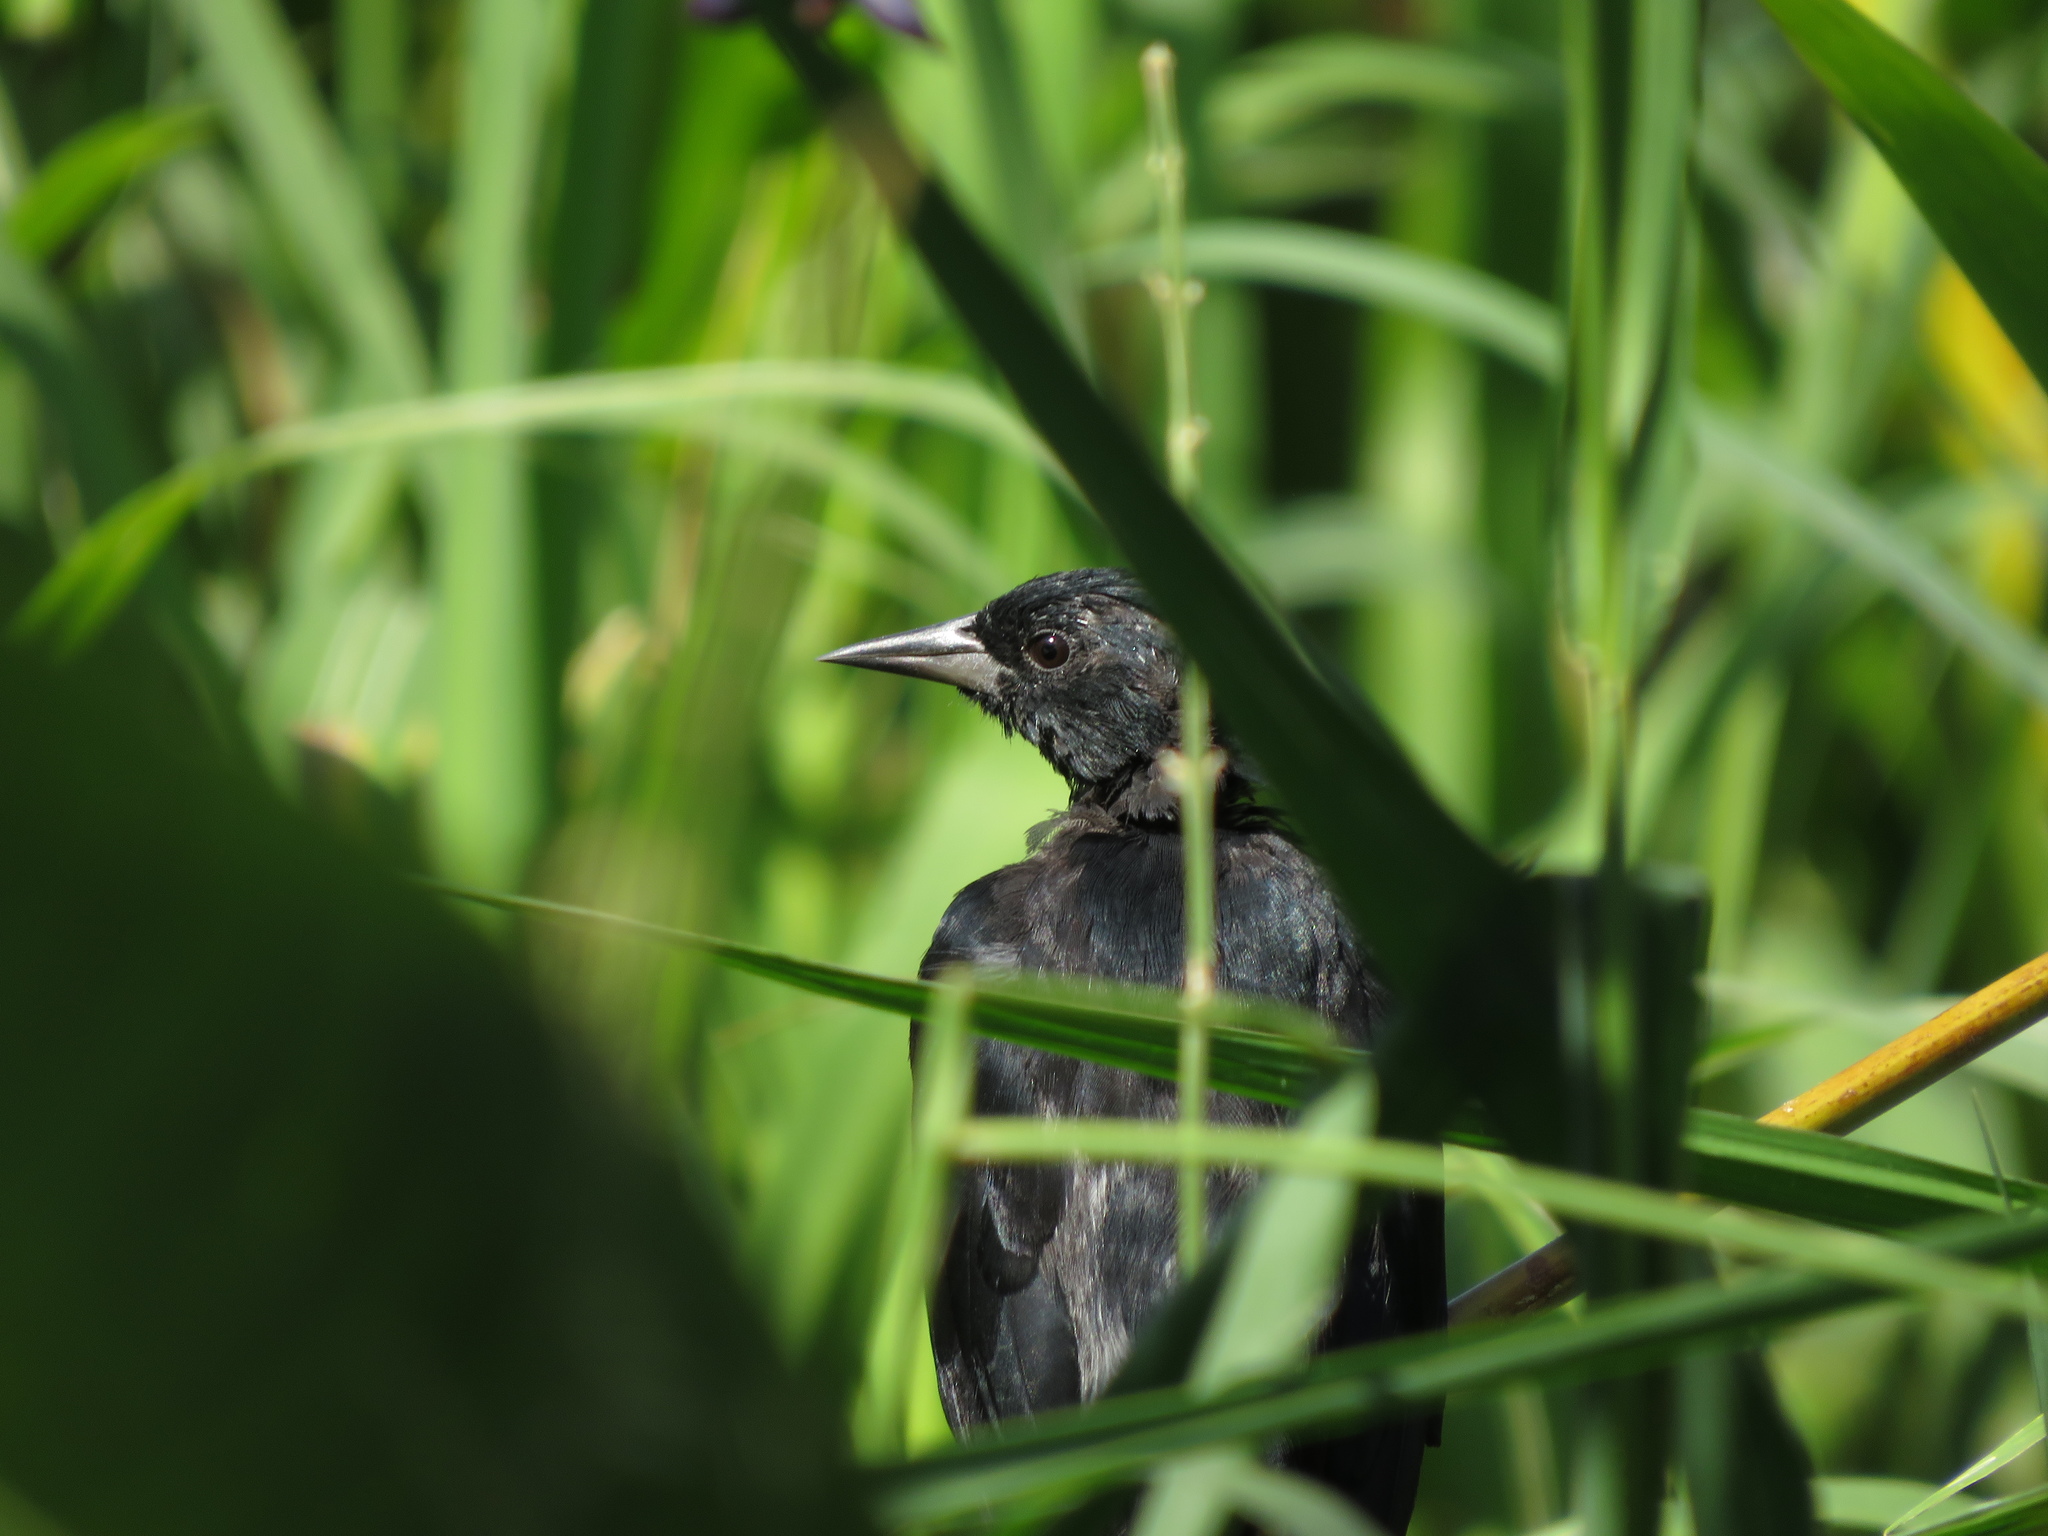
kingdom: Animalia
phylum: Chordata
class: Aves
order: Passeriformes
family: Icteridae
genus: Agelasticus
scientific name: Agelasticus cyanopus
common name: Unicolored blackbird
